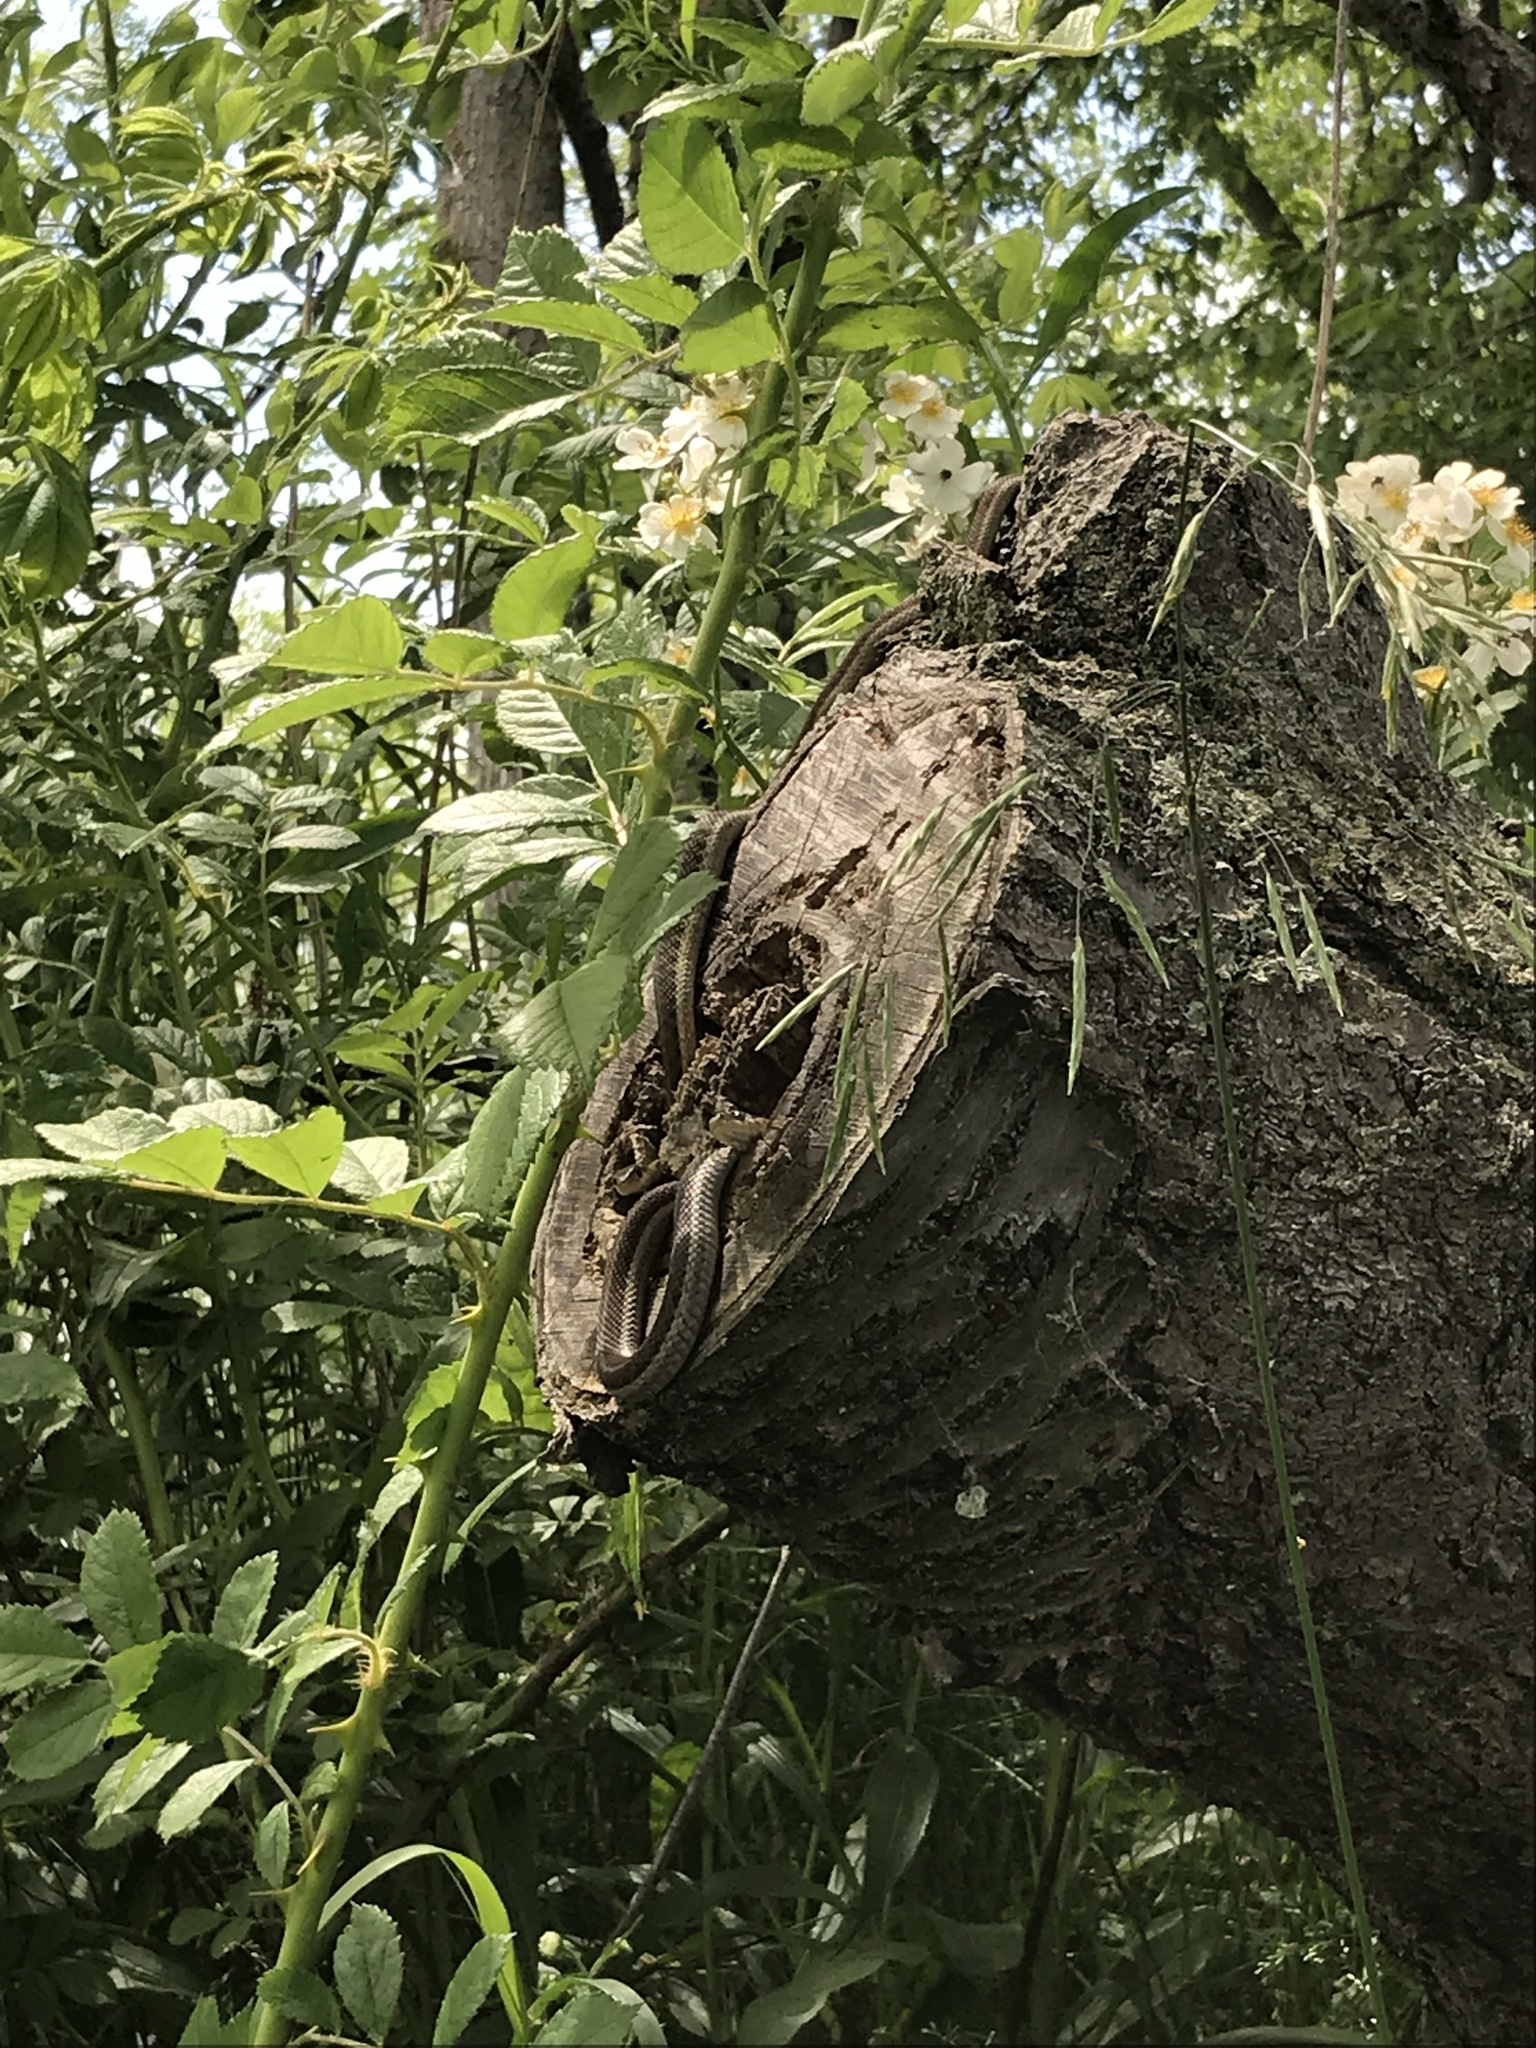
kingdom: Animalia
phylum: Chordata
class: Squamata
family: Colubridae
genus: Thamnophis
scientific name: Thamnophis sirtalis
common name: Common garter snake
